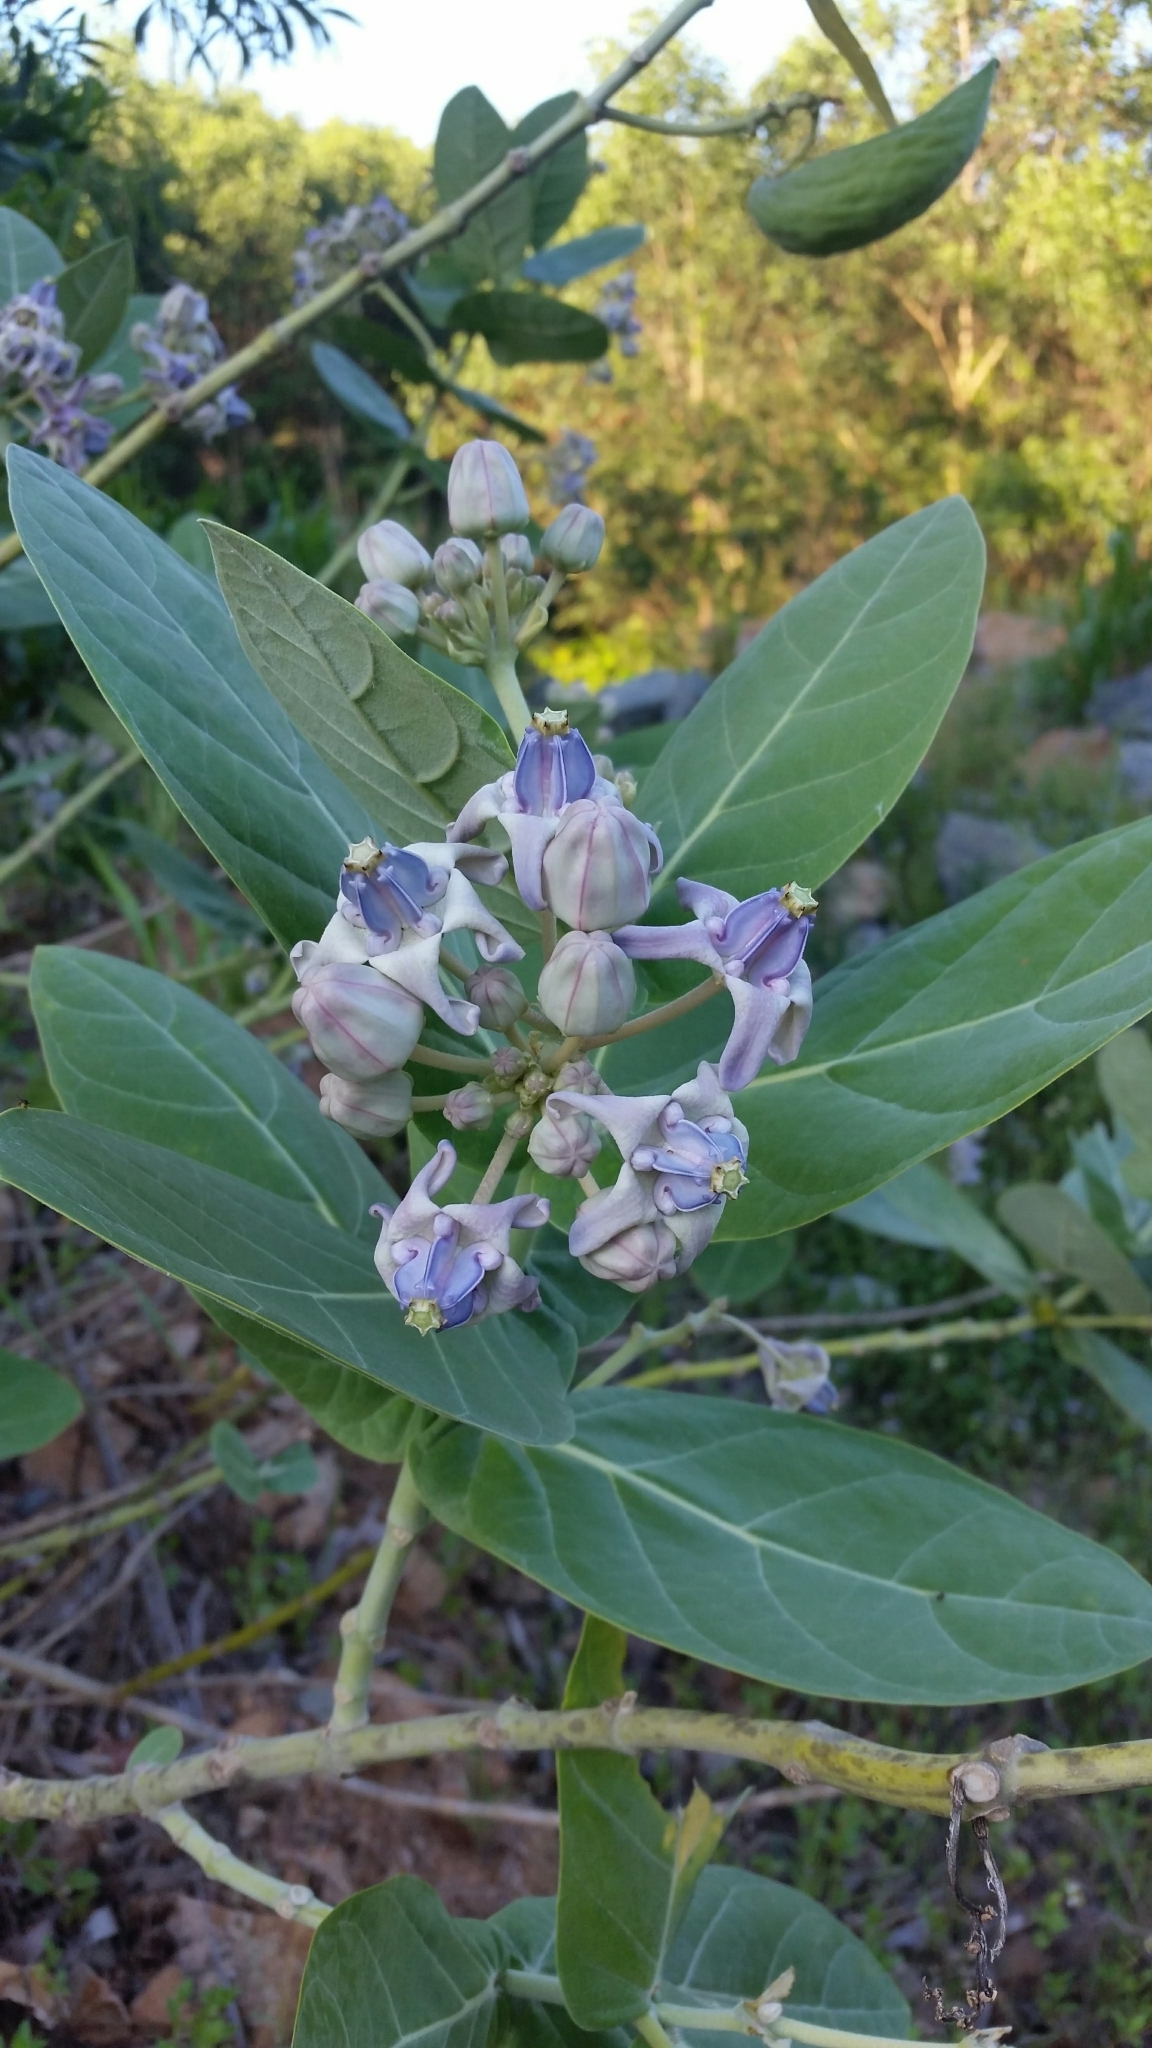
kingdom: Plantae
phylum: Tracheophyta
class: Magnoliopsida
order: Gentianales
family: Apocynaceae
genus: Calotropis
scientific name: Calotropis gigantea
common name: Crown flower
